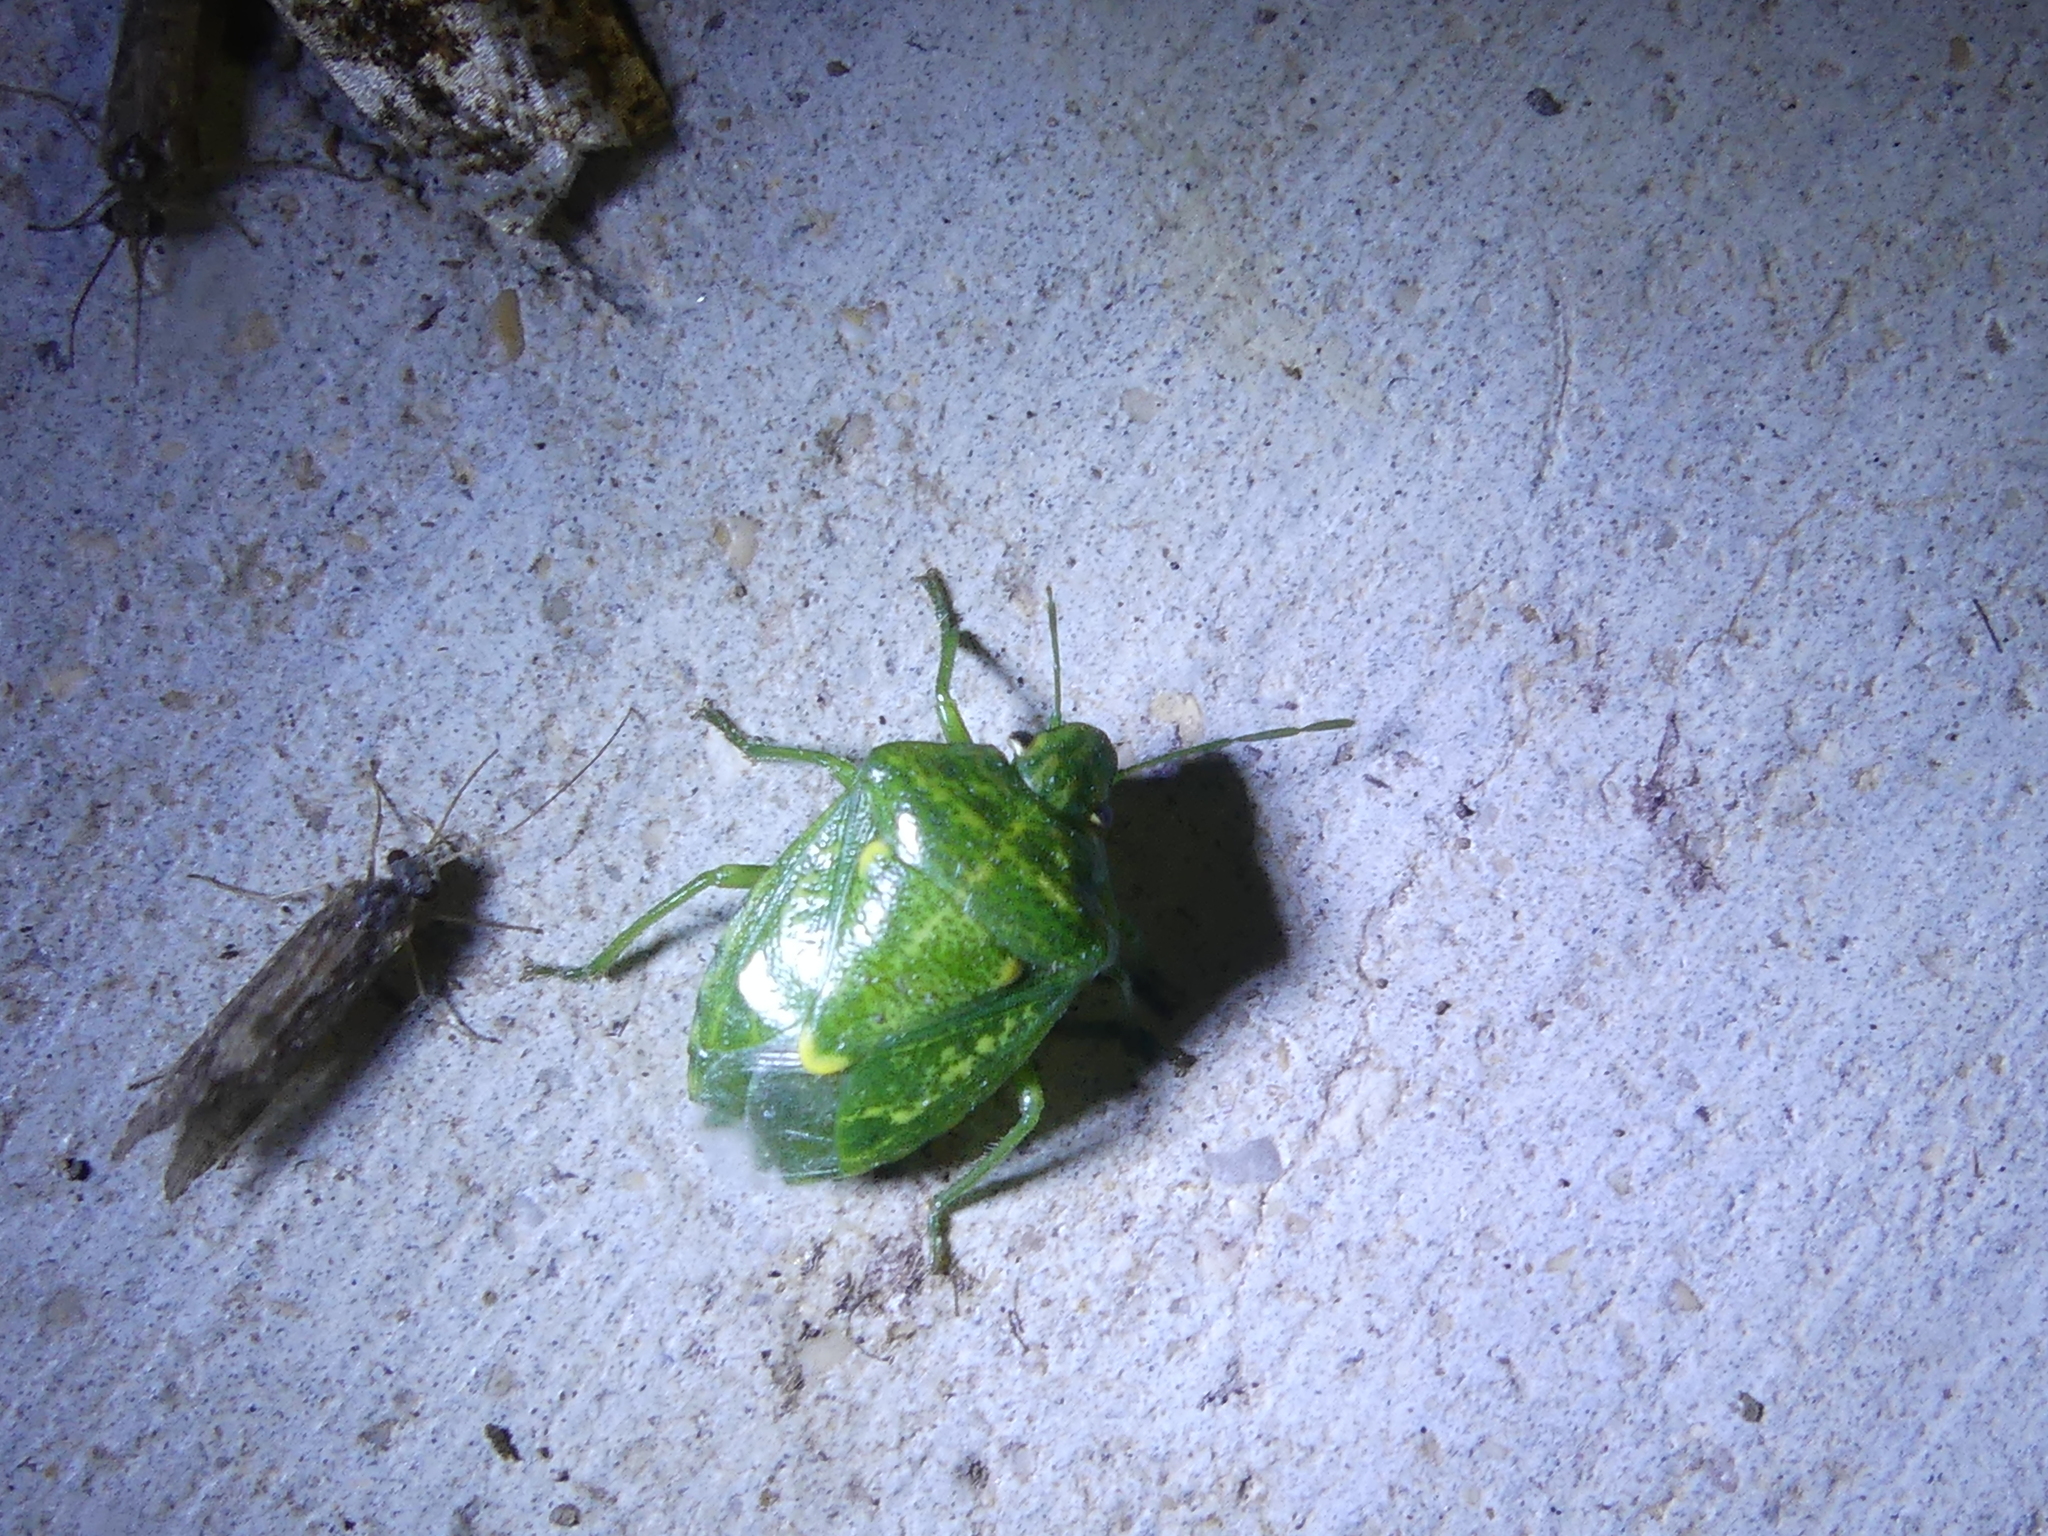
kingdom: Animalia
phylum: Arthropoda
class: Insecta
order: Hemiptera
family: Pentatomidae
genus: Banasa
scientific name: Banasa euchlora
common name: Cedar berry bug
